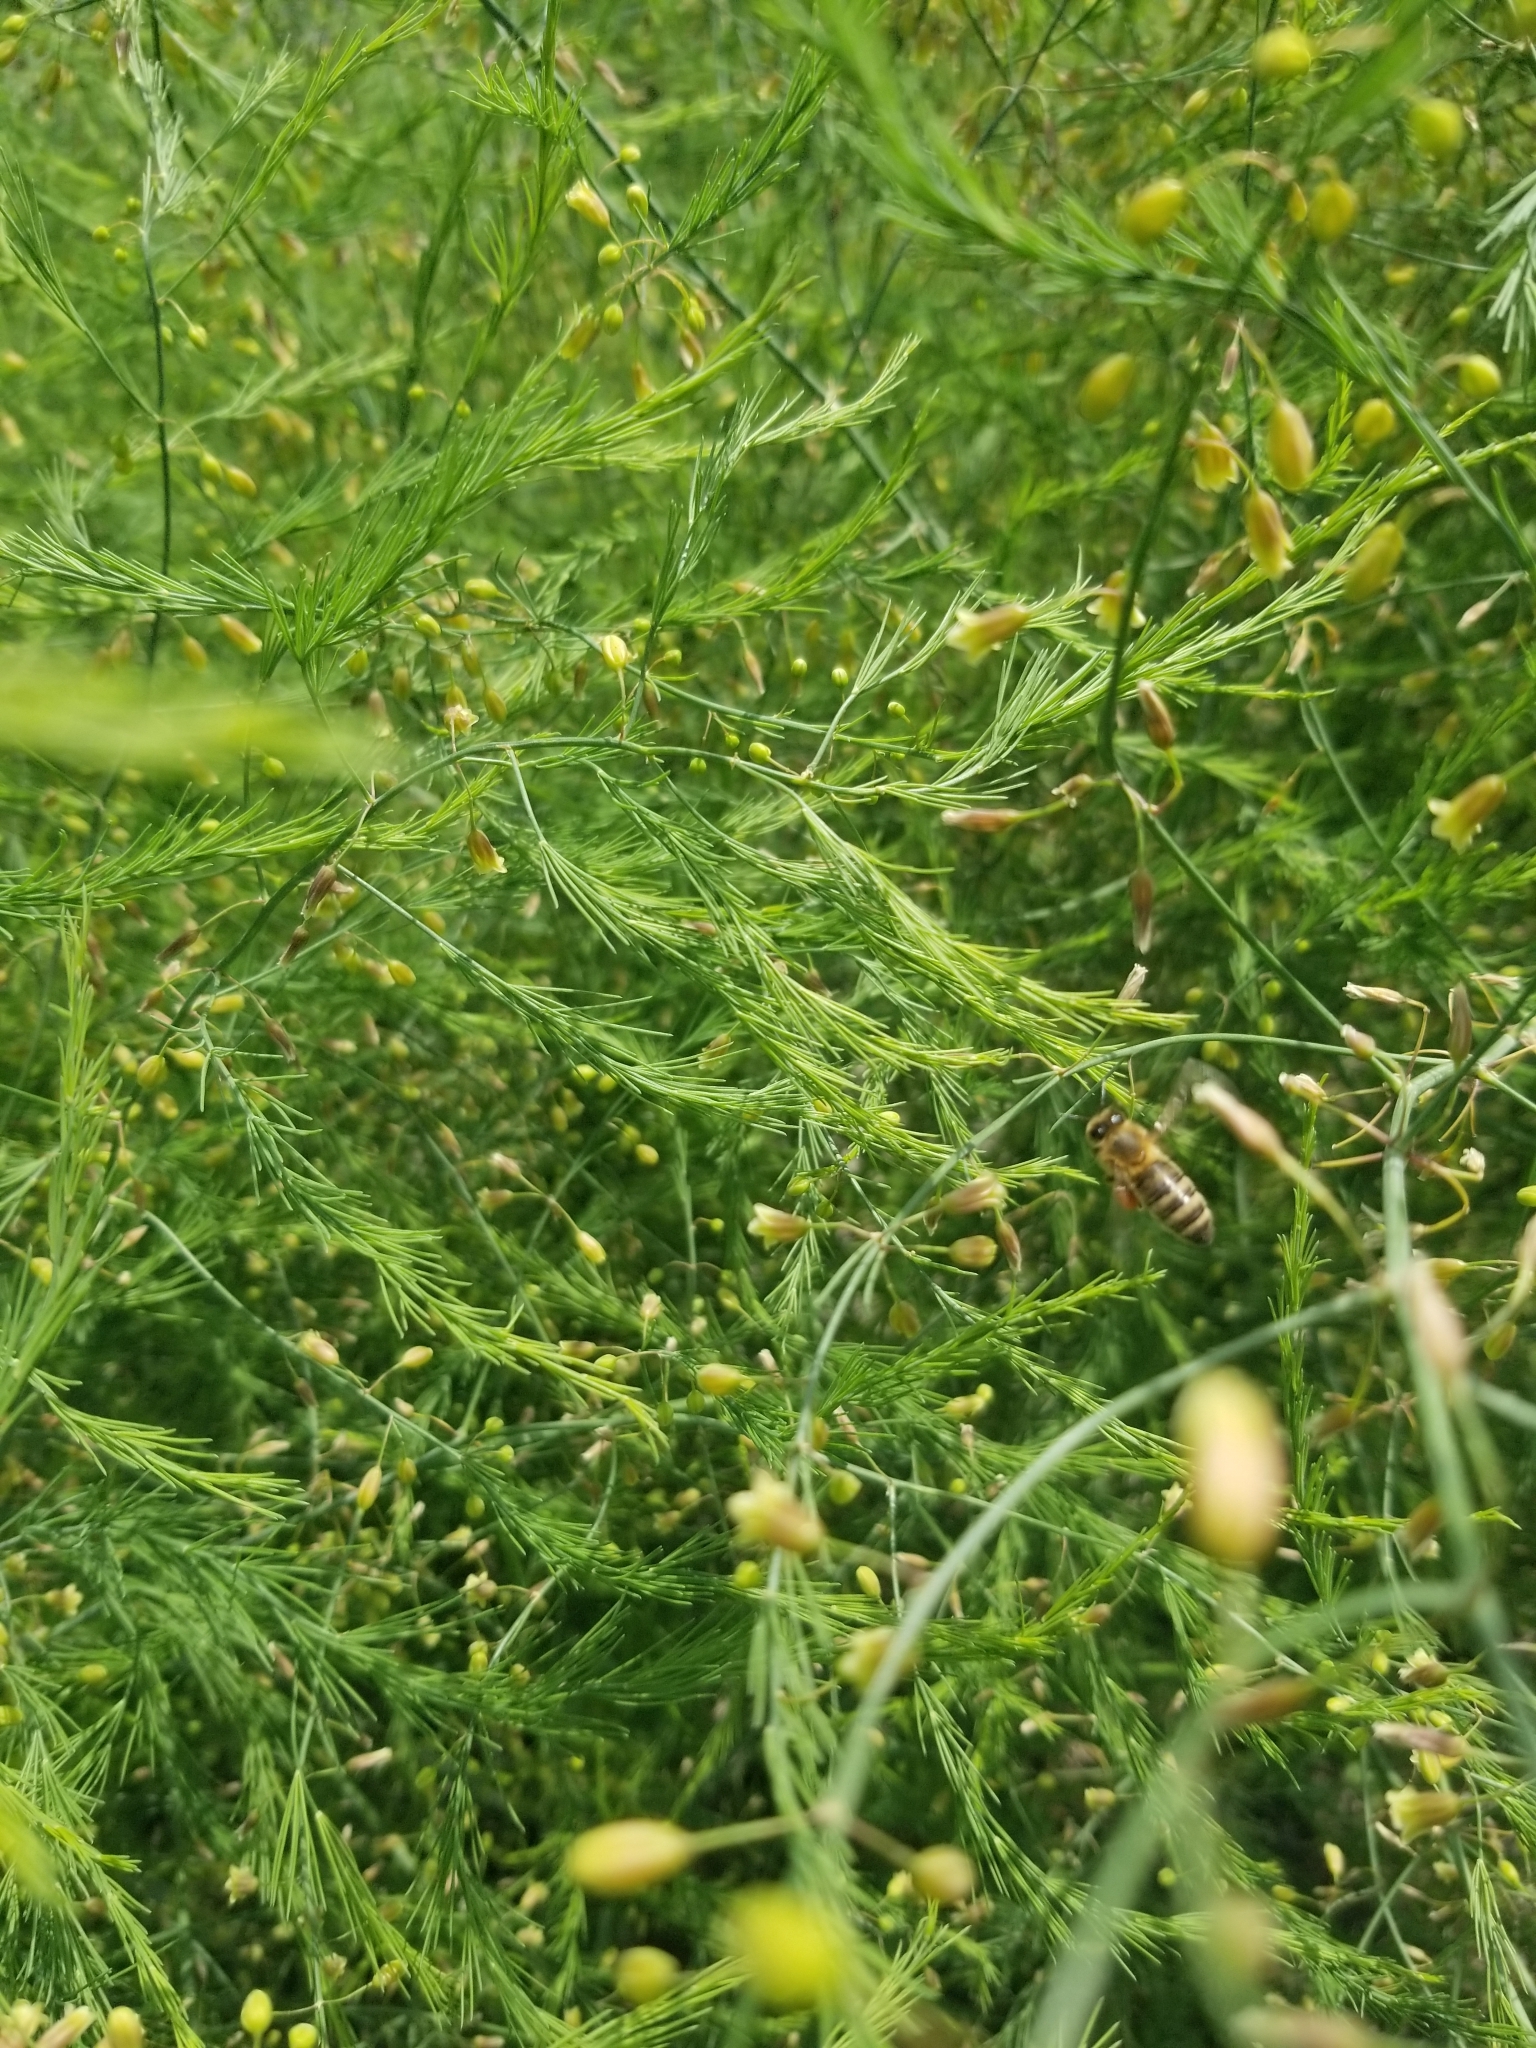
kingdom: Animalia
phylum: Arthropoda
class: Insecta
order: Hymenoptera
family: Apidae
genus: Apis
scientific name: Apis mellifera
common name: Honey bee
